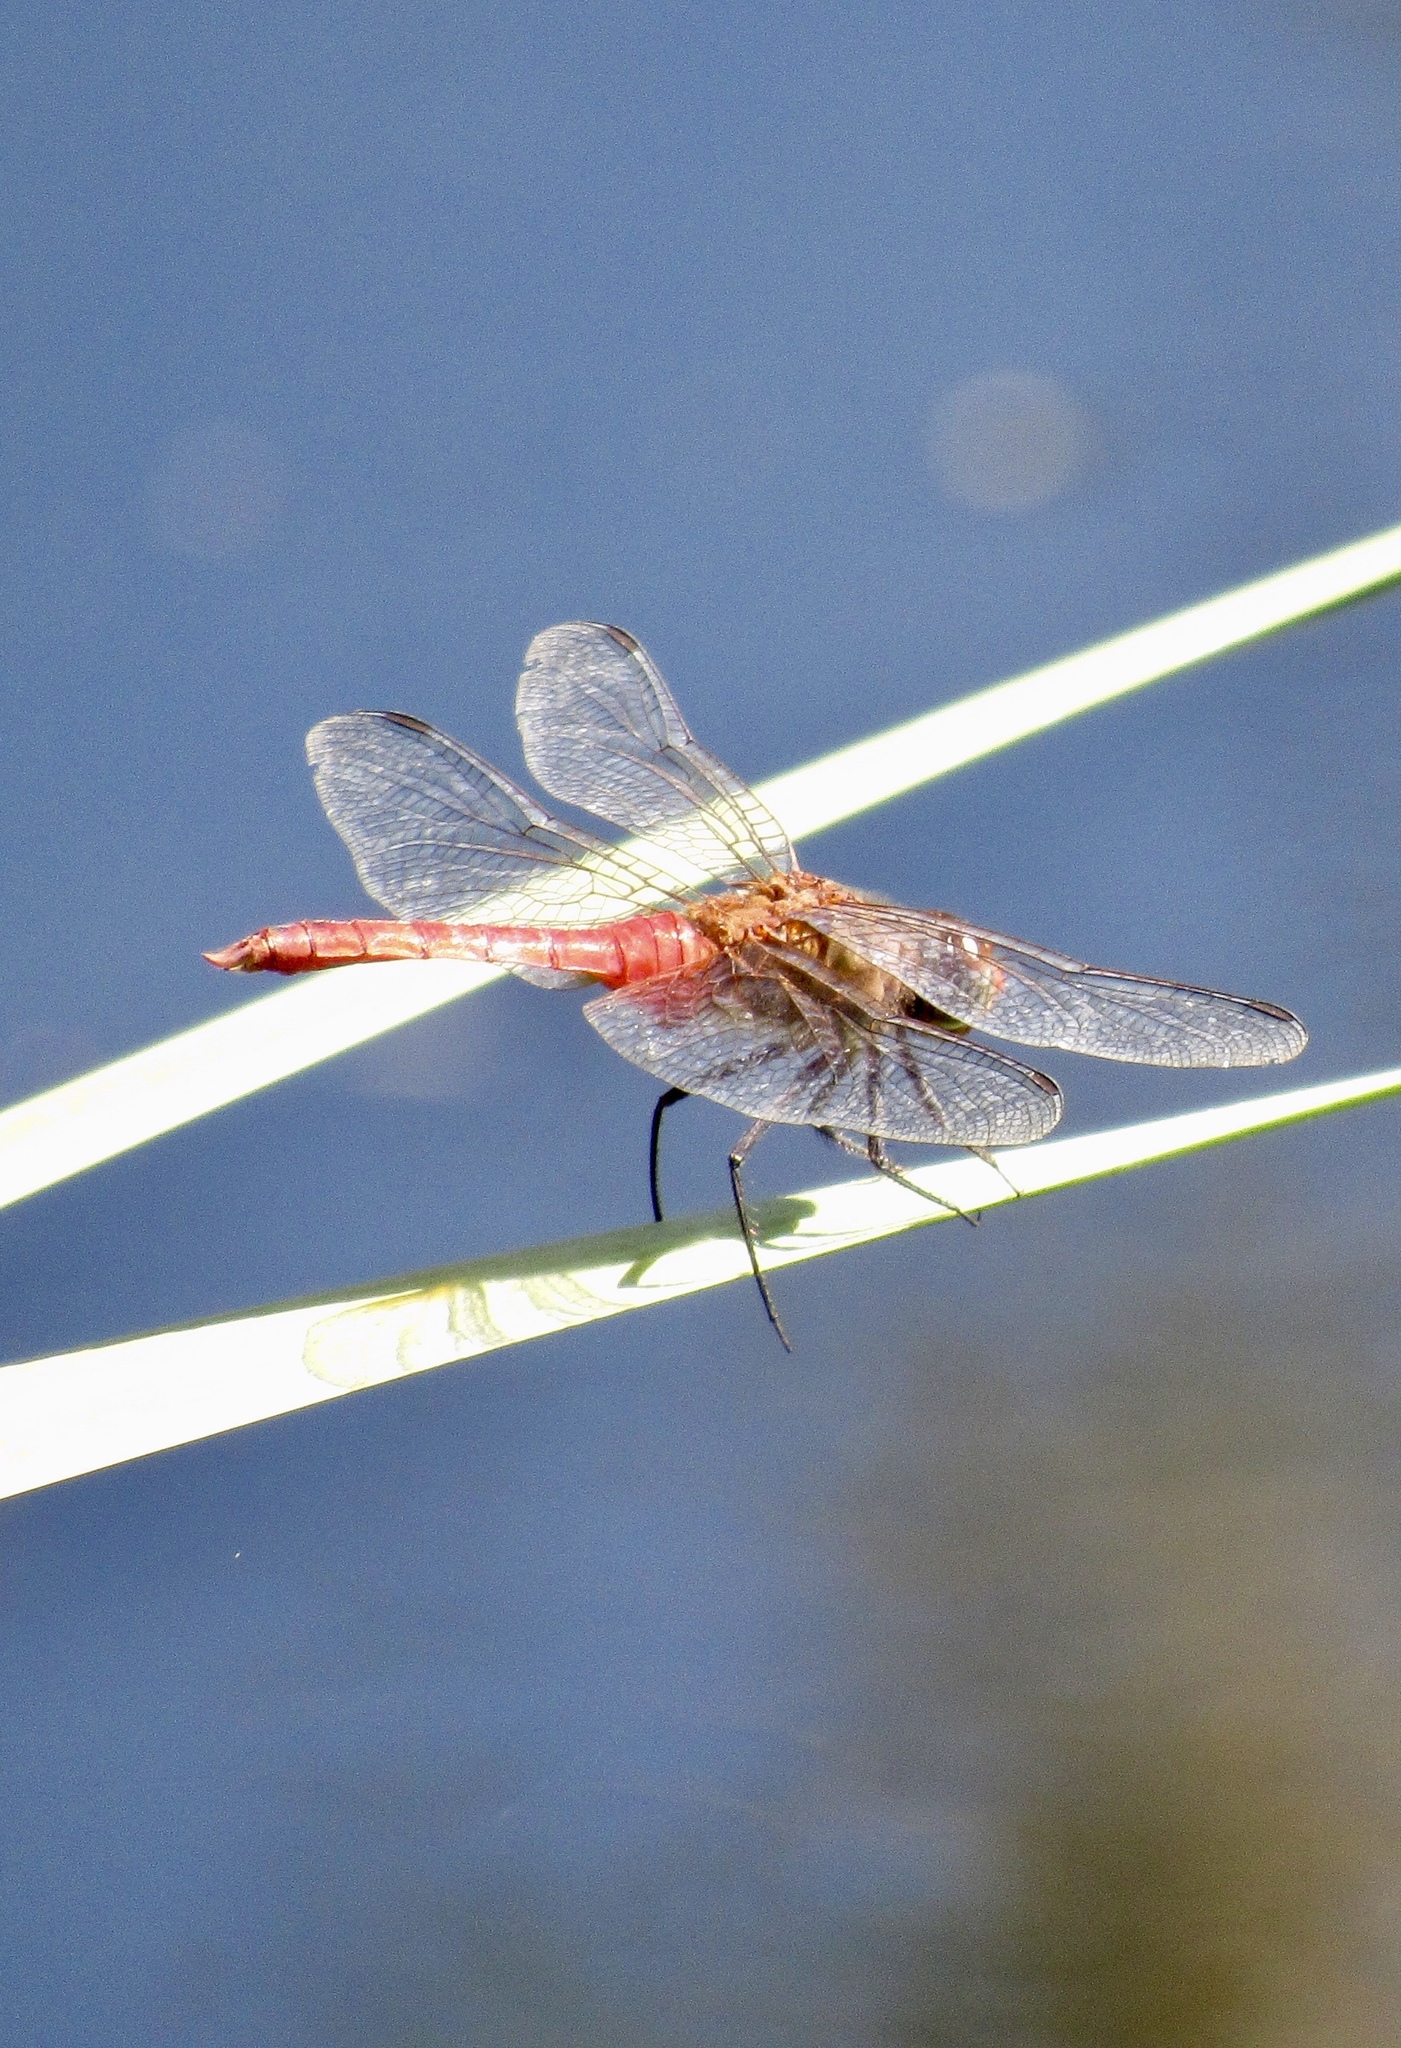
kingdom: Animalia
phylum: Arthropoda
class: Insecta
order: Odonata
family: Libellulidae
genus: Brachymesia
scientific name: Brachymesia furcata
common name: Red-taled pennant
